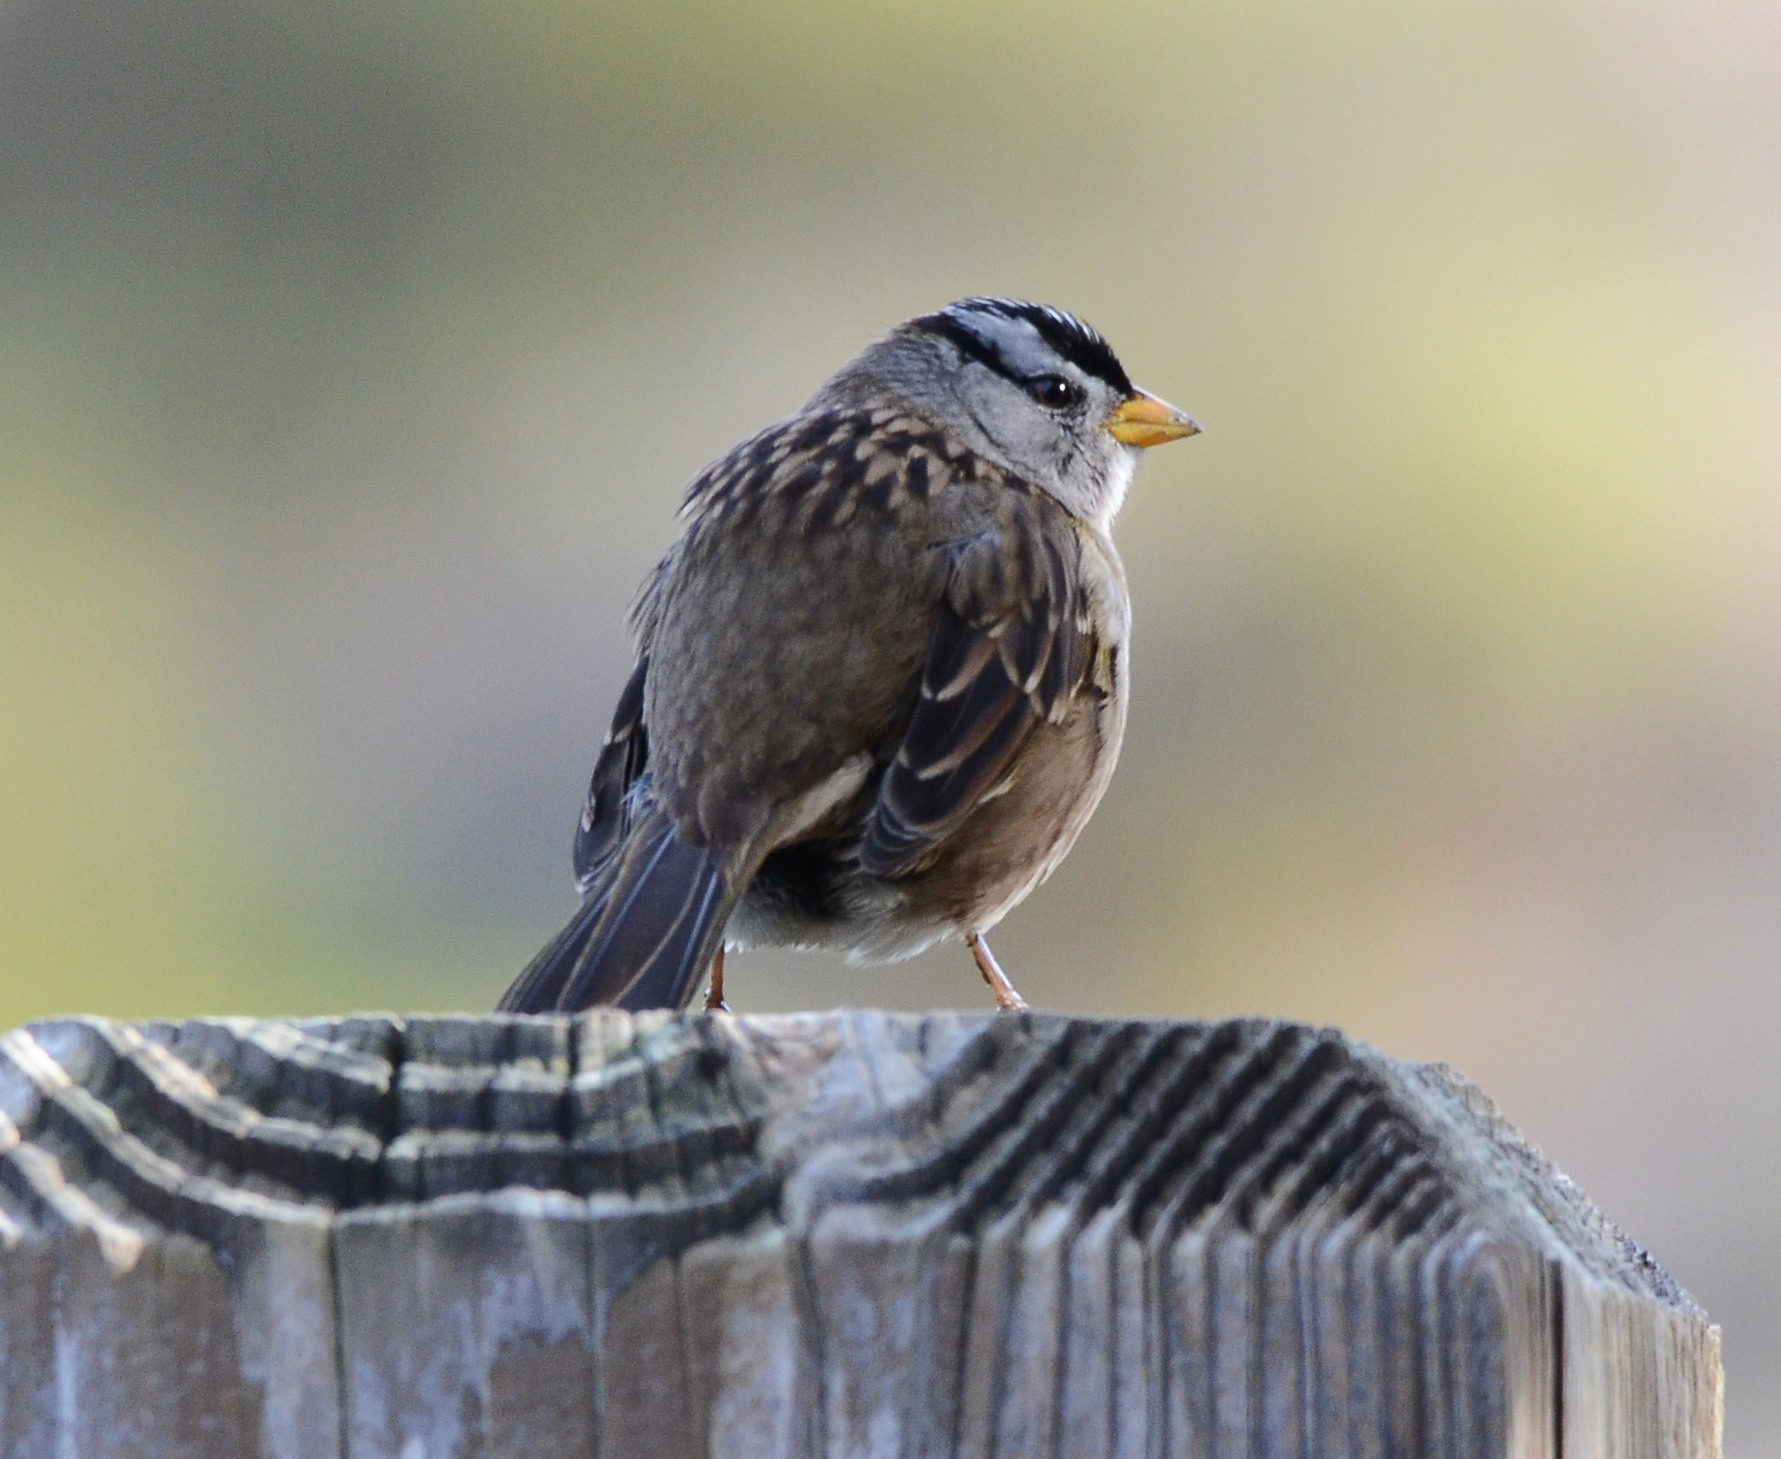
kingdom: Animalia
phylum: Chordata
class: Aves
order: Passeriformes
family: Passerellidae
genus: Zonotrichia
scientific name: Zonotrichia leucophrys
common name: White-crowned sparrow
